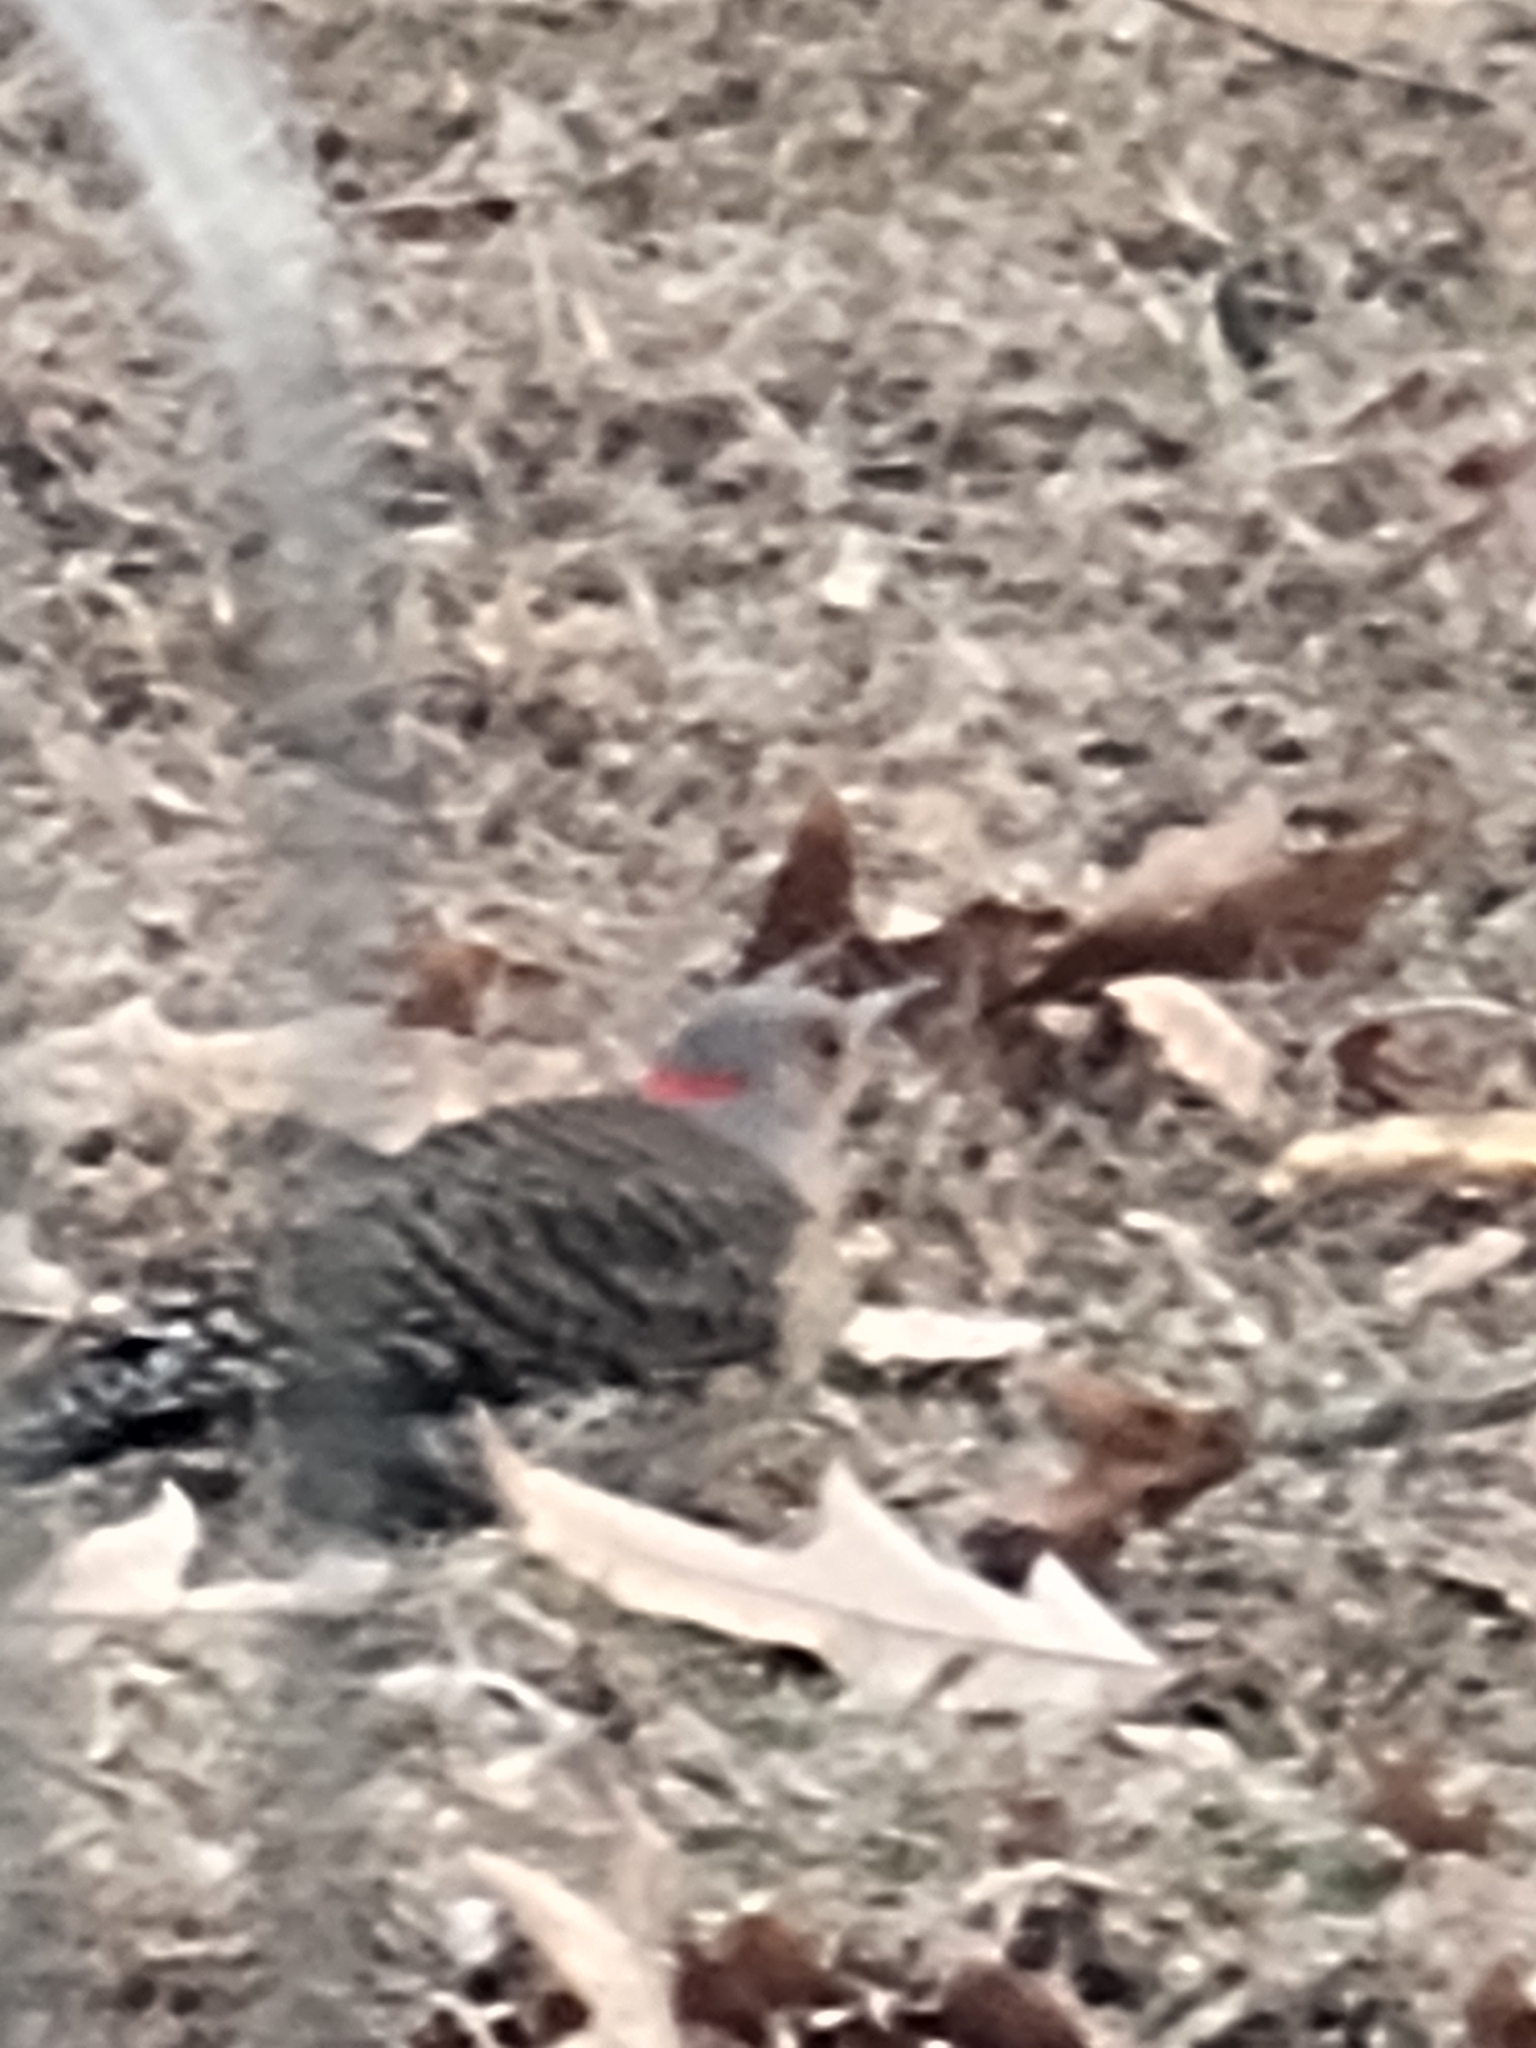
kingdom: Animalia
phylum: Chordata
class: Aves
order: Piciformes
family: Picidae
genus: Colaptes
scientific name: Colaptes auratus
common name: Northern flicker
